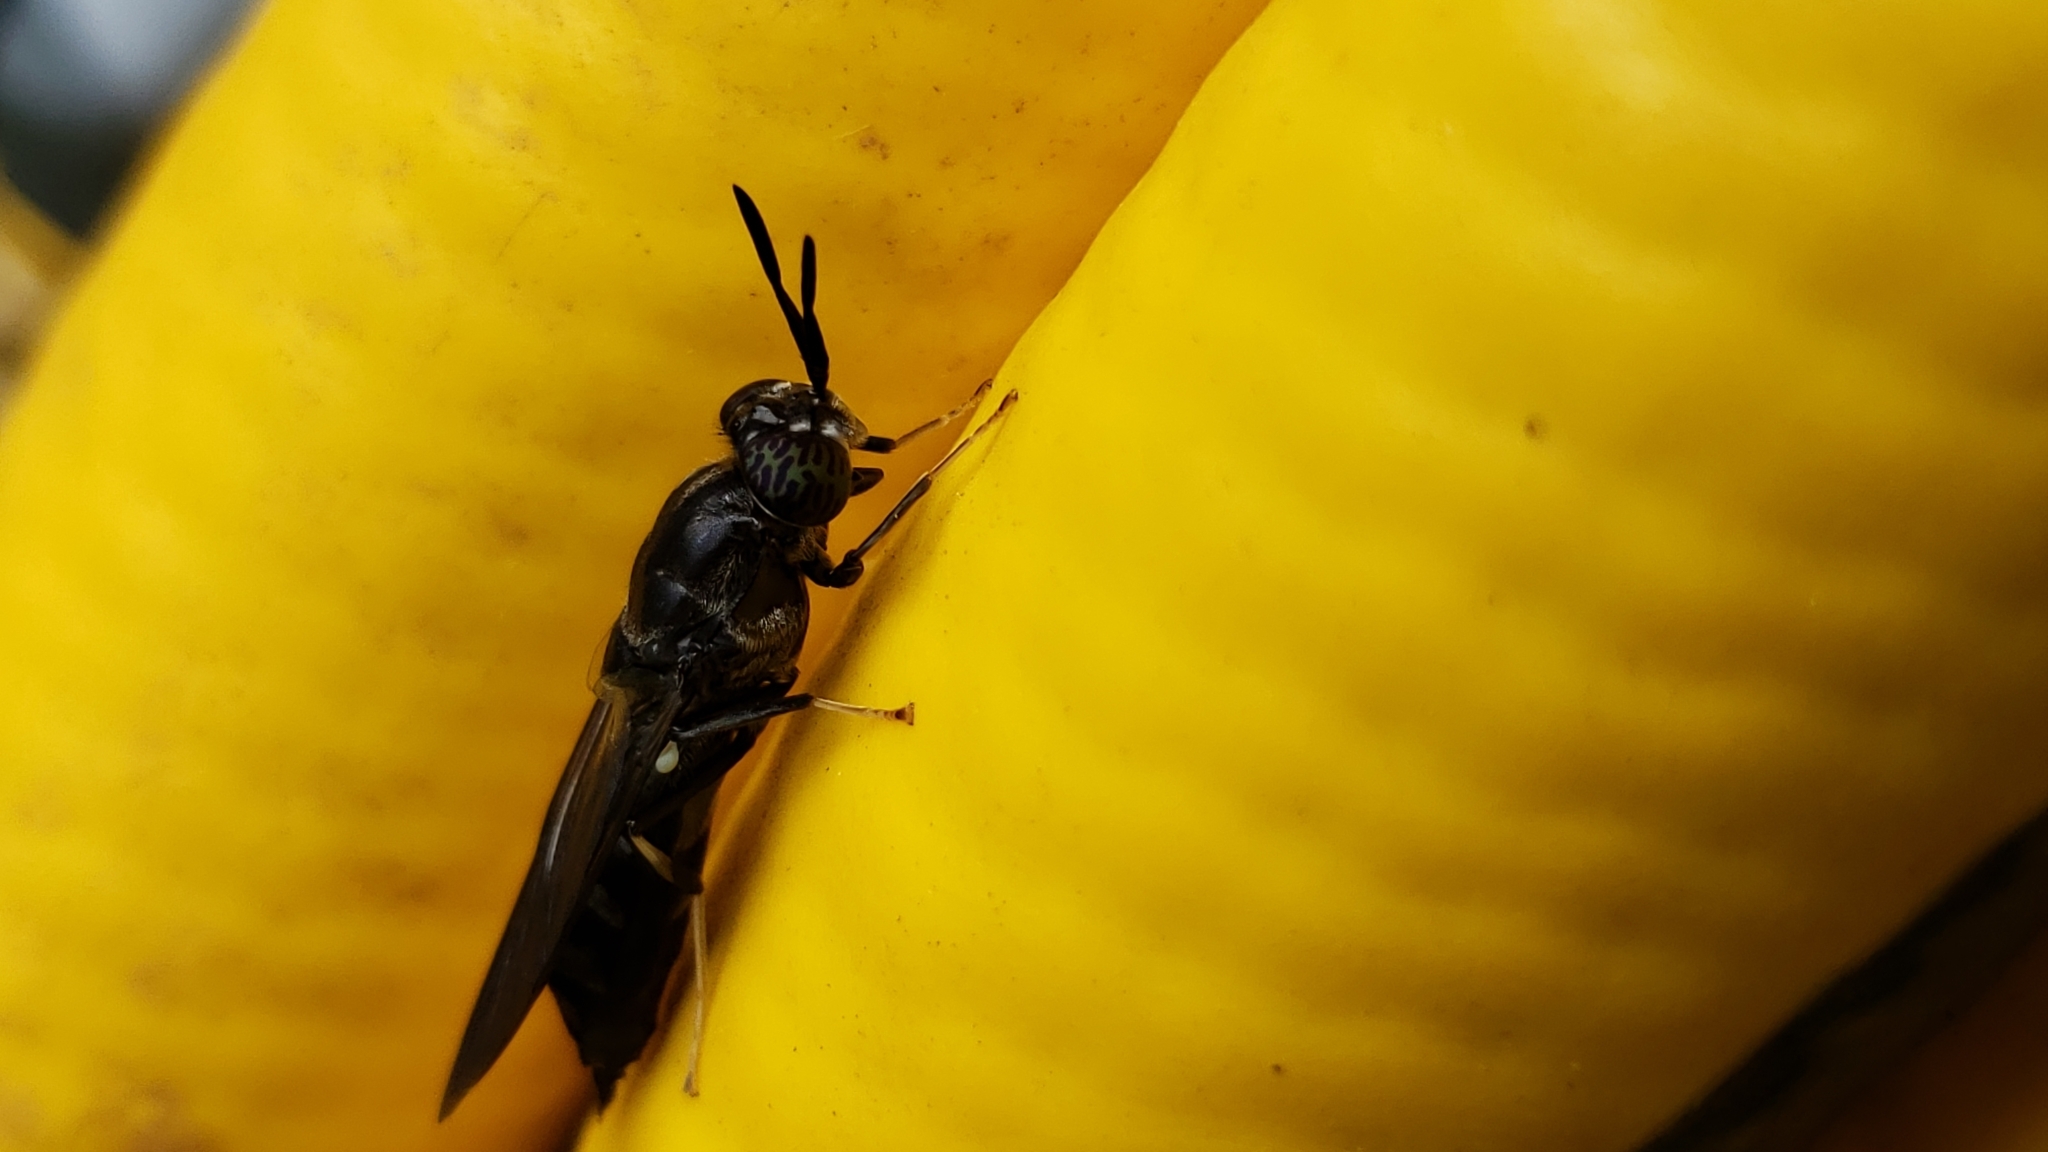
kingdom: Animalia
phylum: Arthropoda
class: Insecta
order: Diptera
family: Stratiomyidae
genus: Hermetia
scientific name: Hermetia illucens
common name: Black soldier fly
